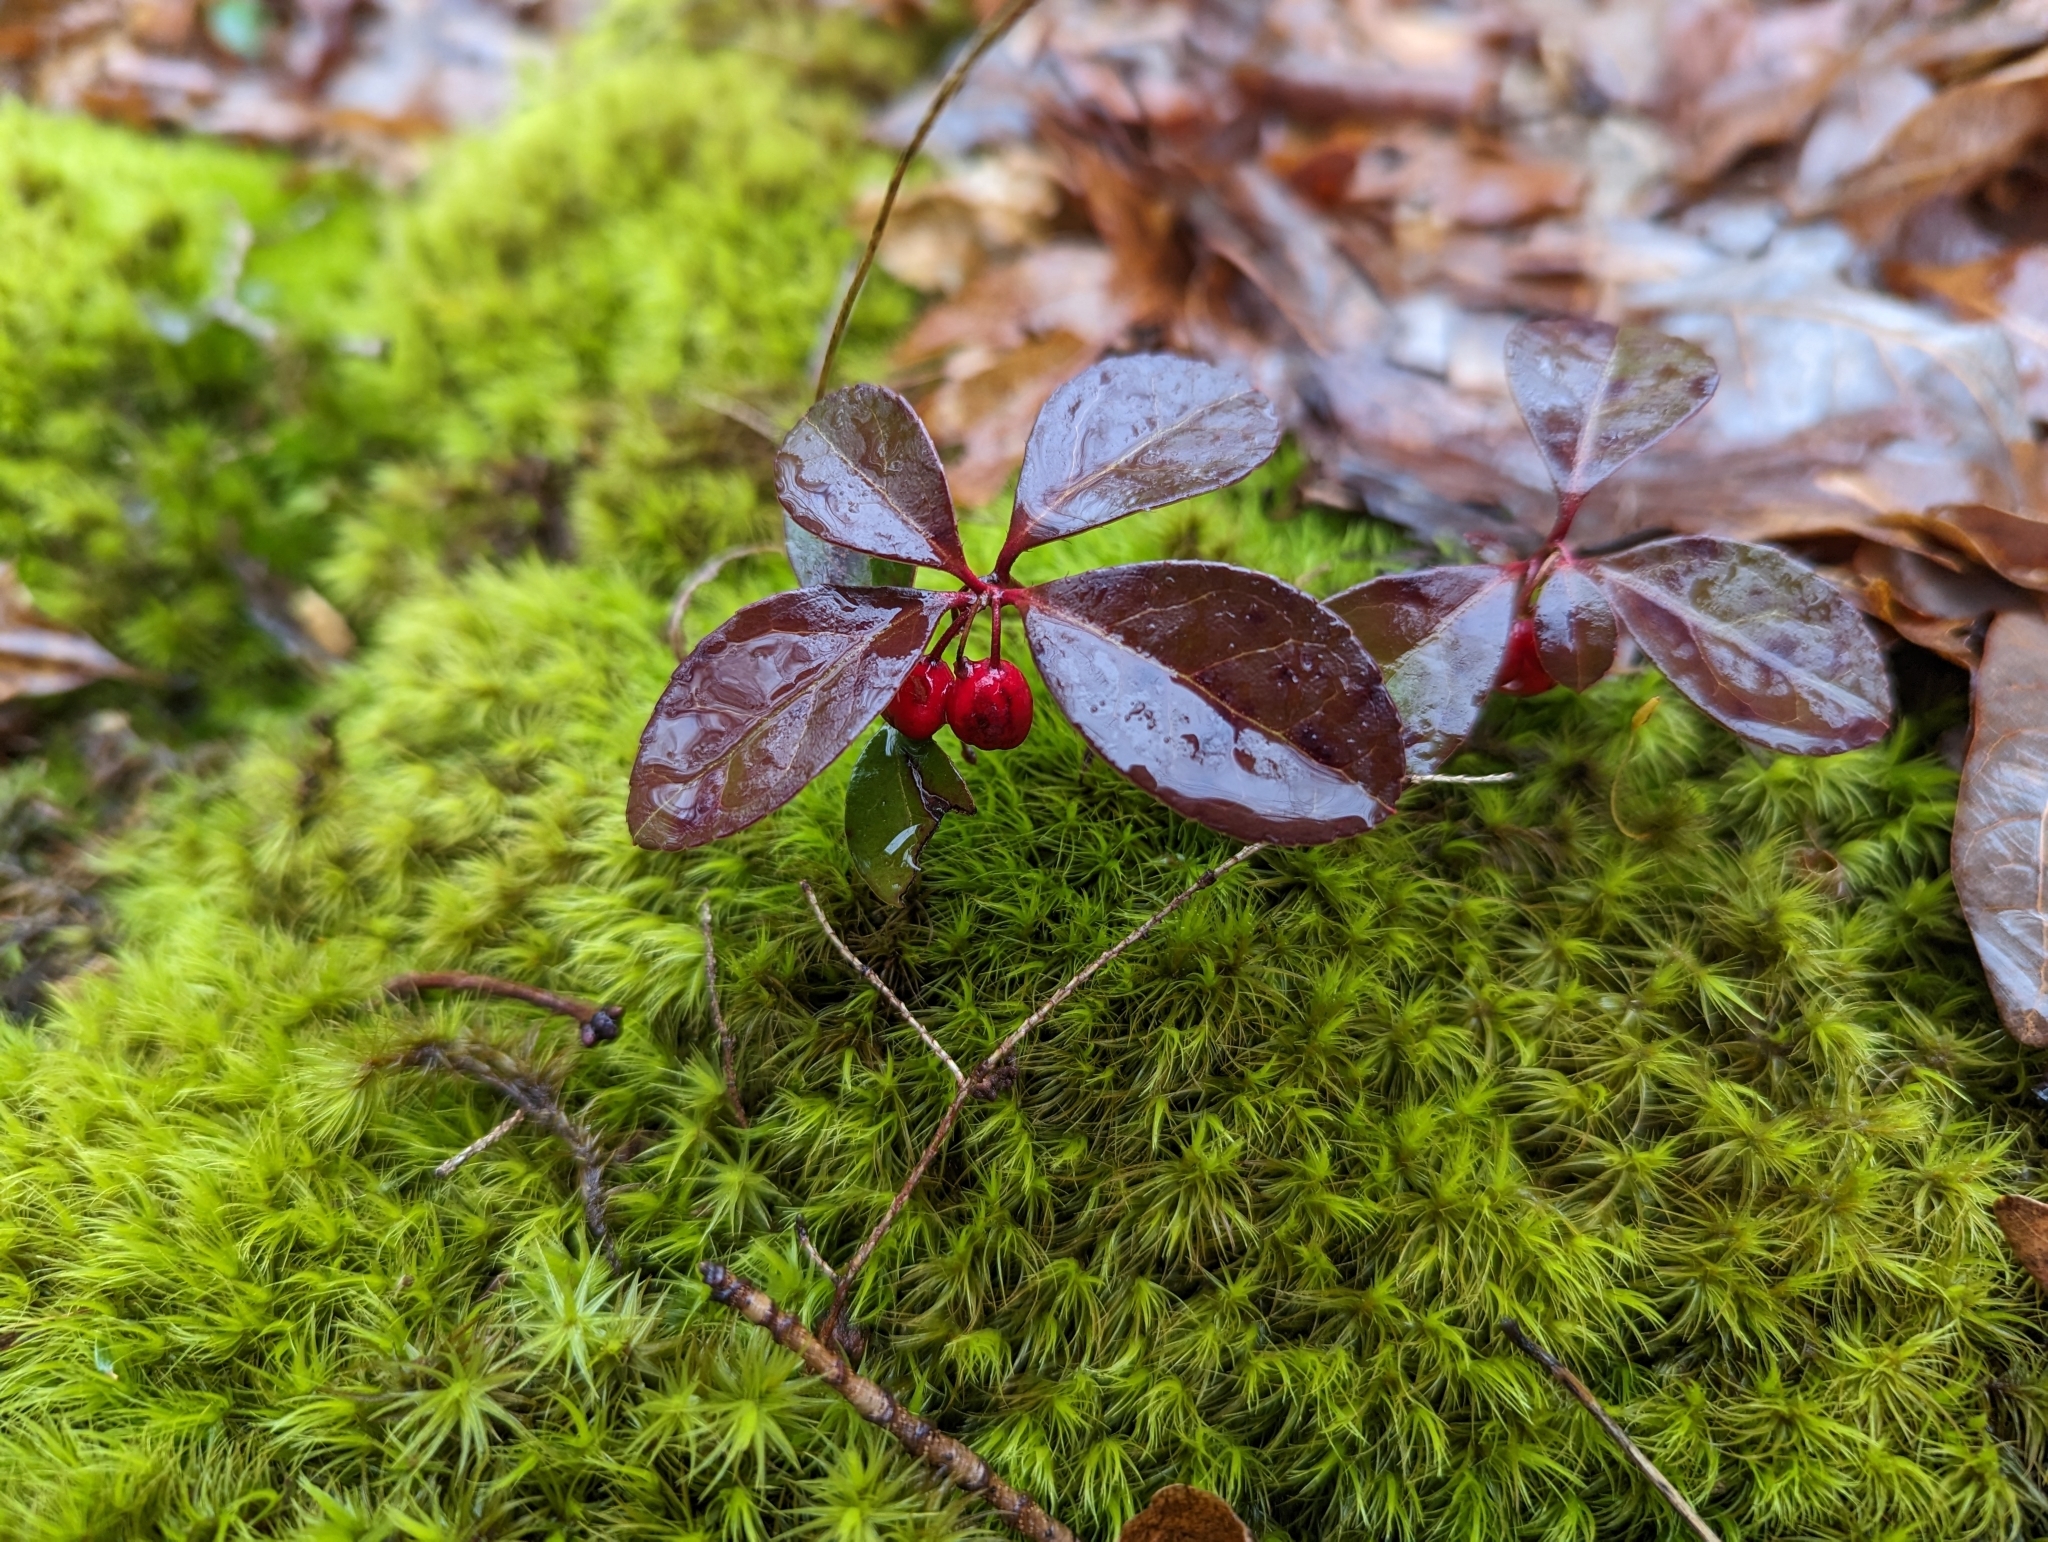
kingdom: Plantae
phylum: Tracheophyta
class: Magnoliopsida
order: Ericales
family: Ericaceae
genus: Gaultheria
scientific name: Gaultheria procumbens
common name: Checkerberry
